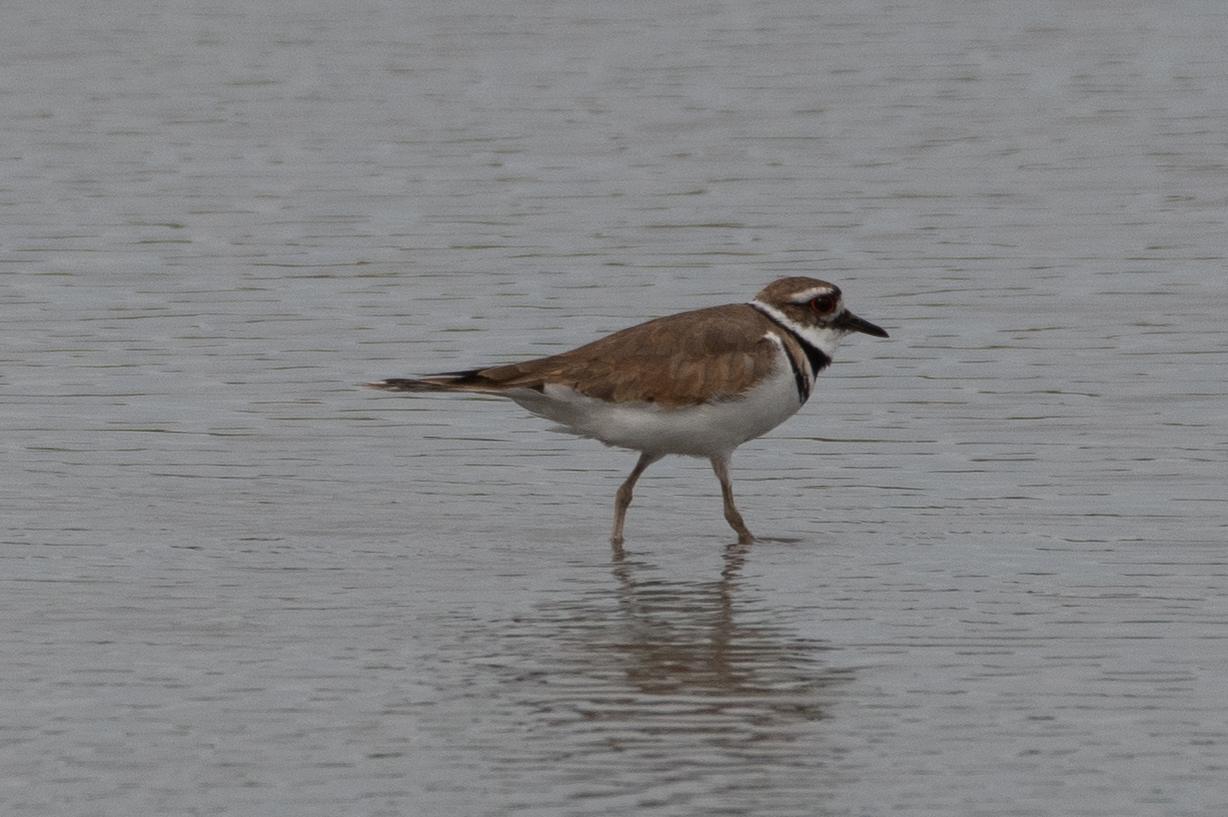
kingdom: Animalia
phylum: Chordata
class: Aves
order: Charadriiformes
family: Charadriidae
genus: Charadrius
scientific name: Charadrius vociferus
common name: Killdeer
